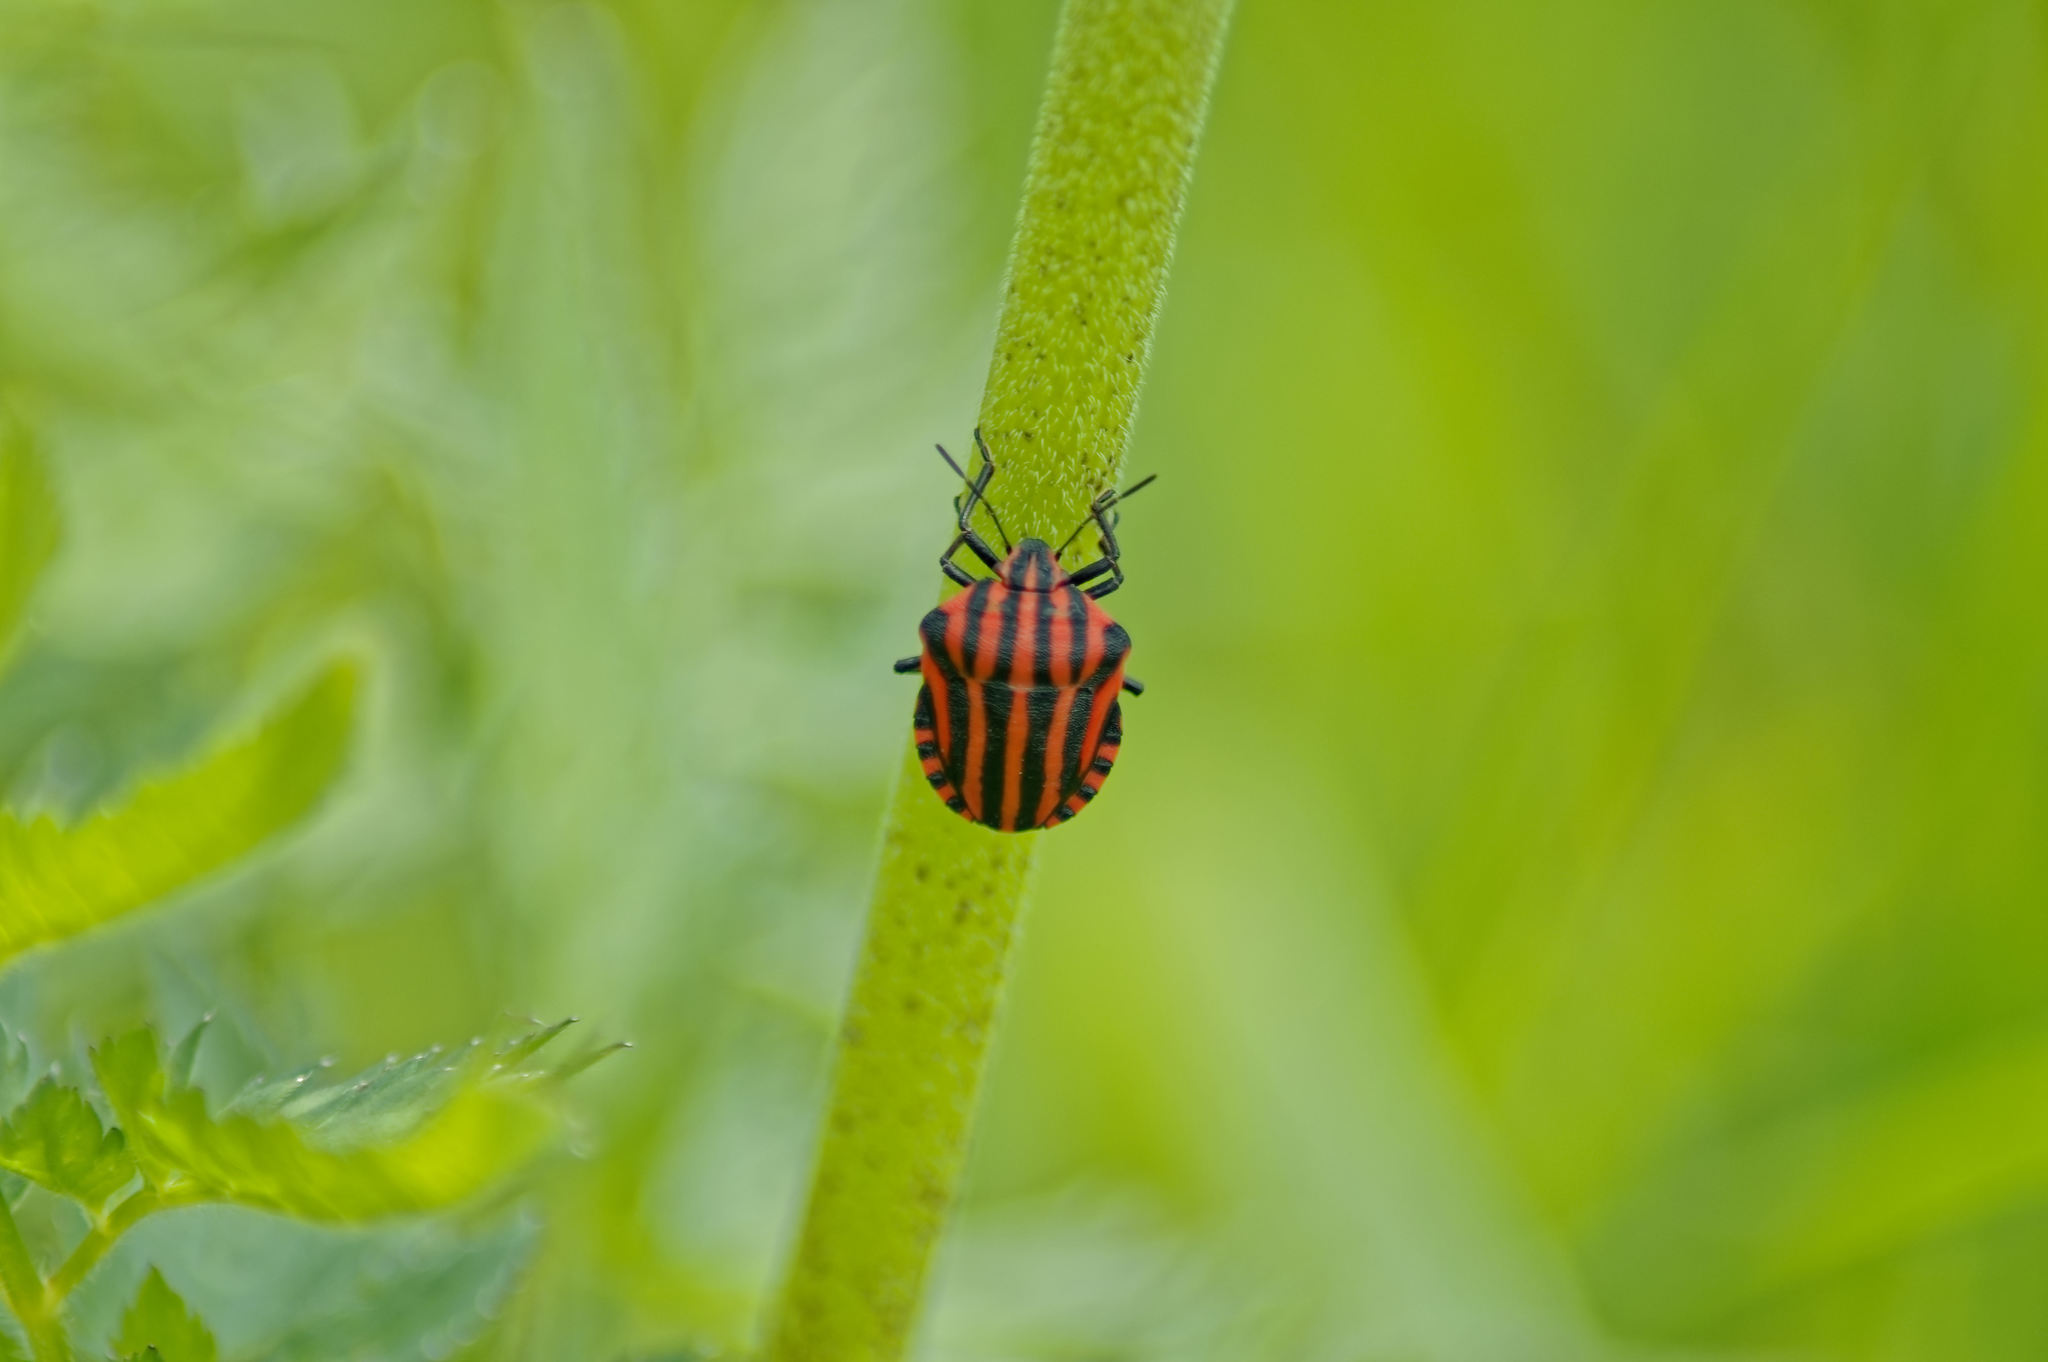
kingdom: Animalia
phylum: Arthropoda
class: Insecta
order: Hemiptera
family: Pentatomidae
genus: Graphosoma
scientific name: Graphosoma italicum
